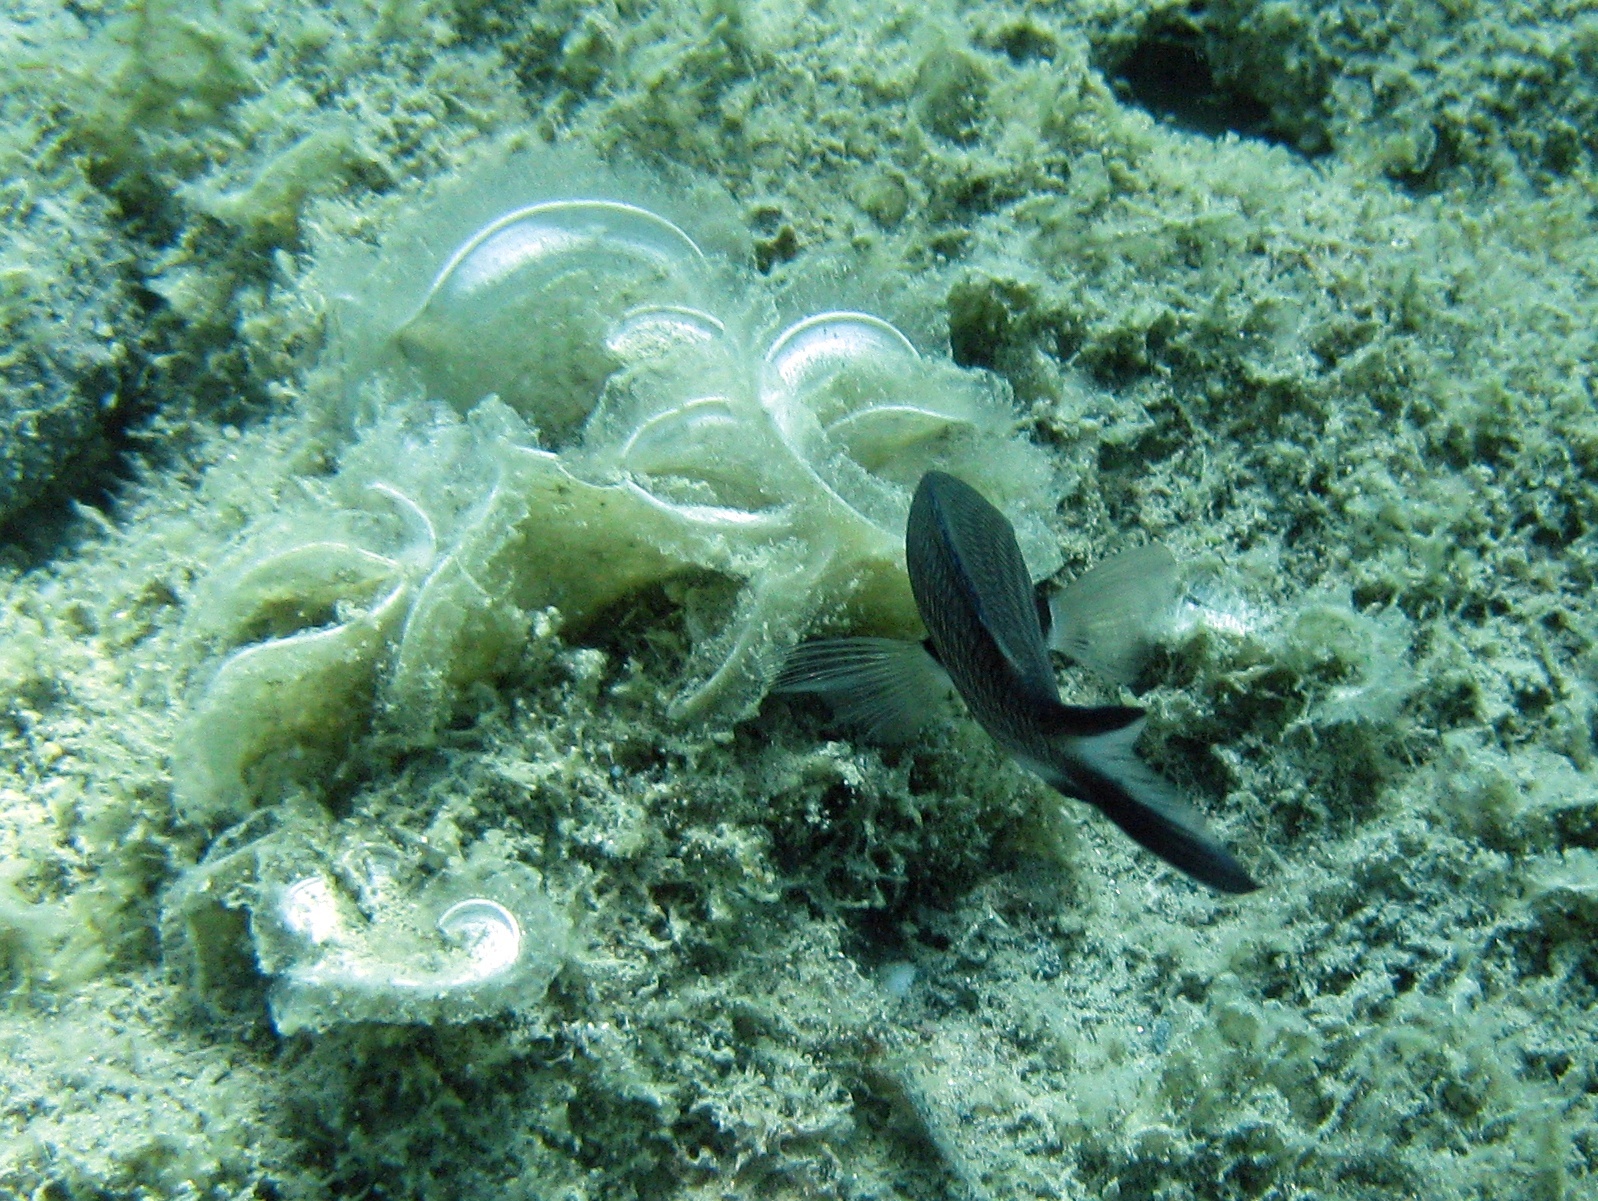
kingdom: Chromista
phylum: Ochrophyta
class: Phaeophyceae
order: Dictyotales
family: Dictyotaceae
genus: Padina
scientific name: Padina
